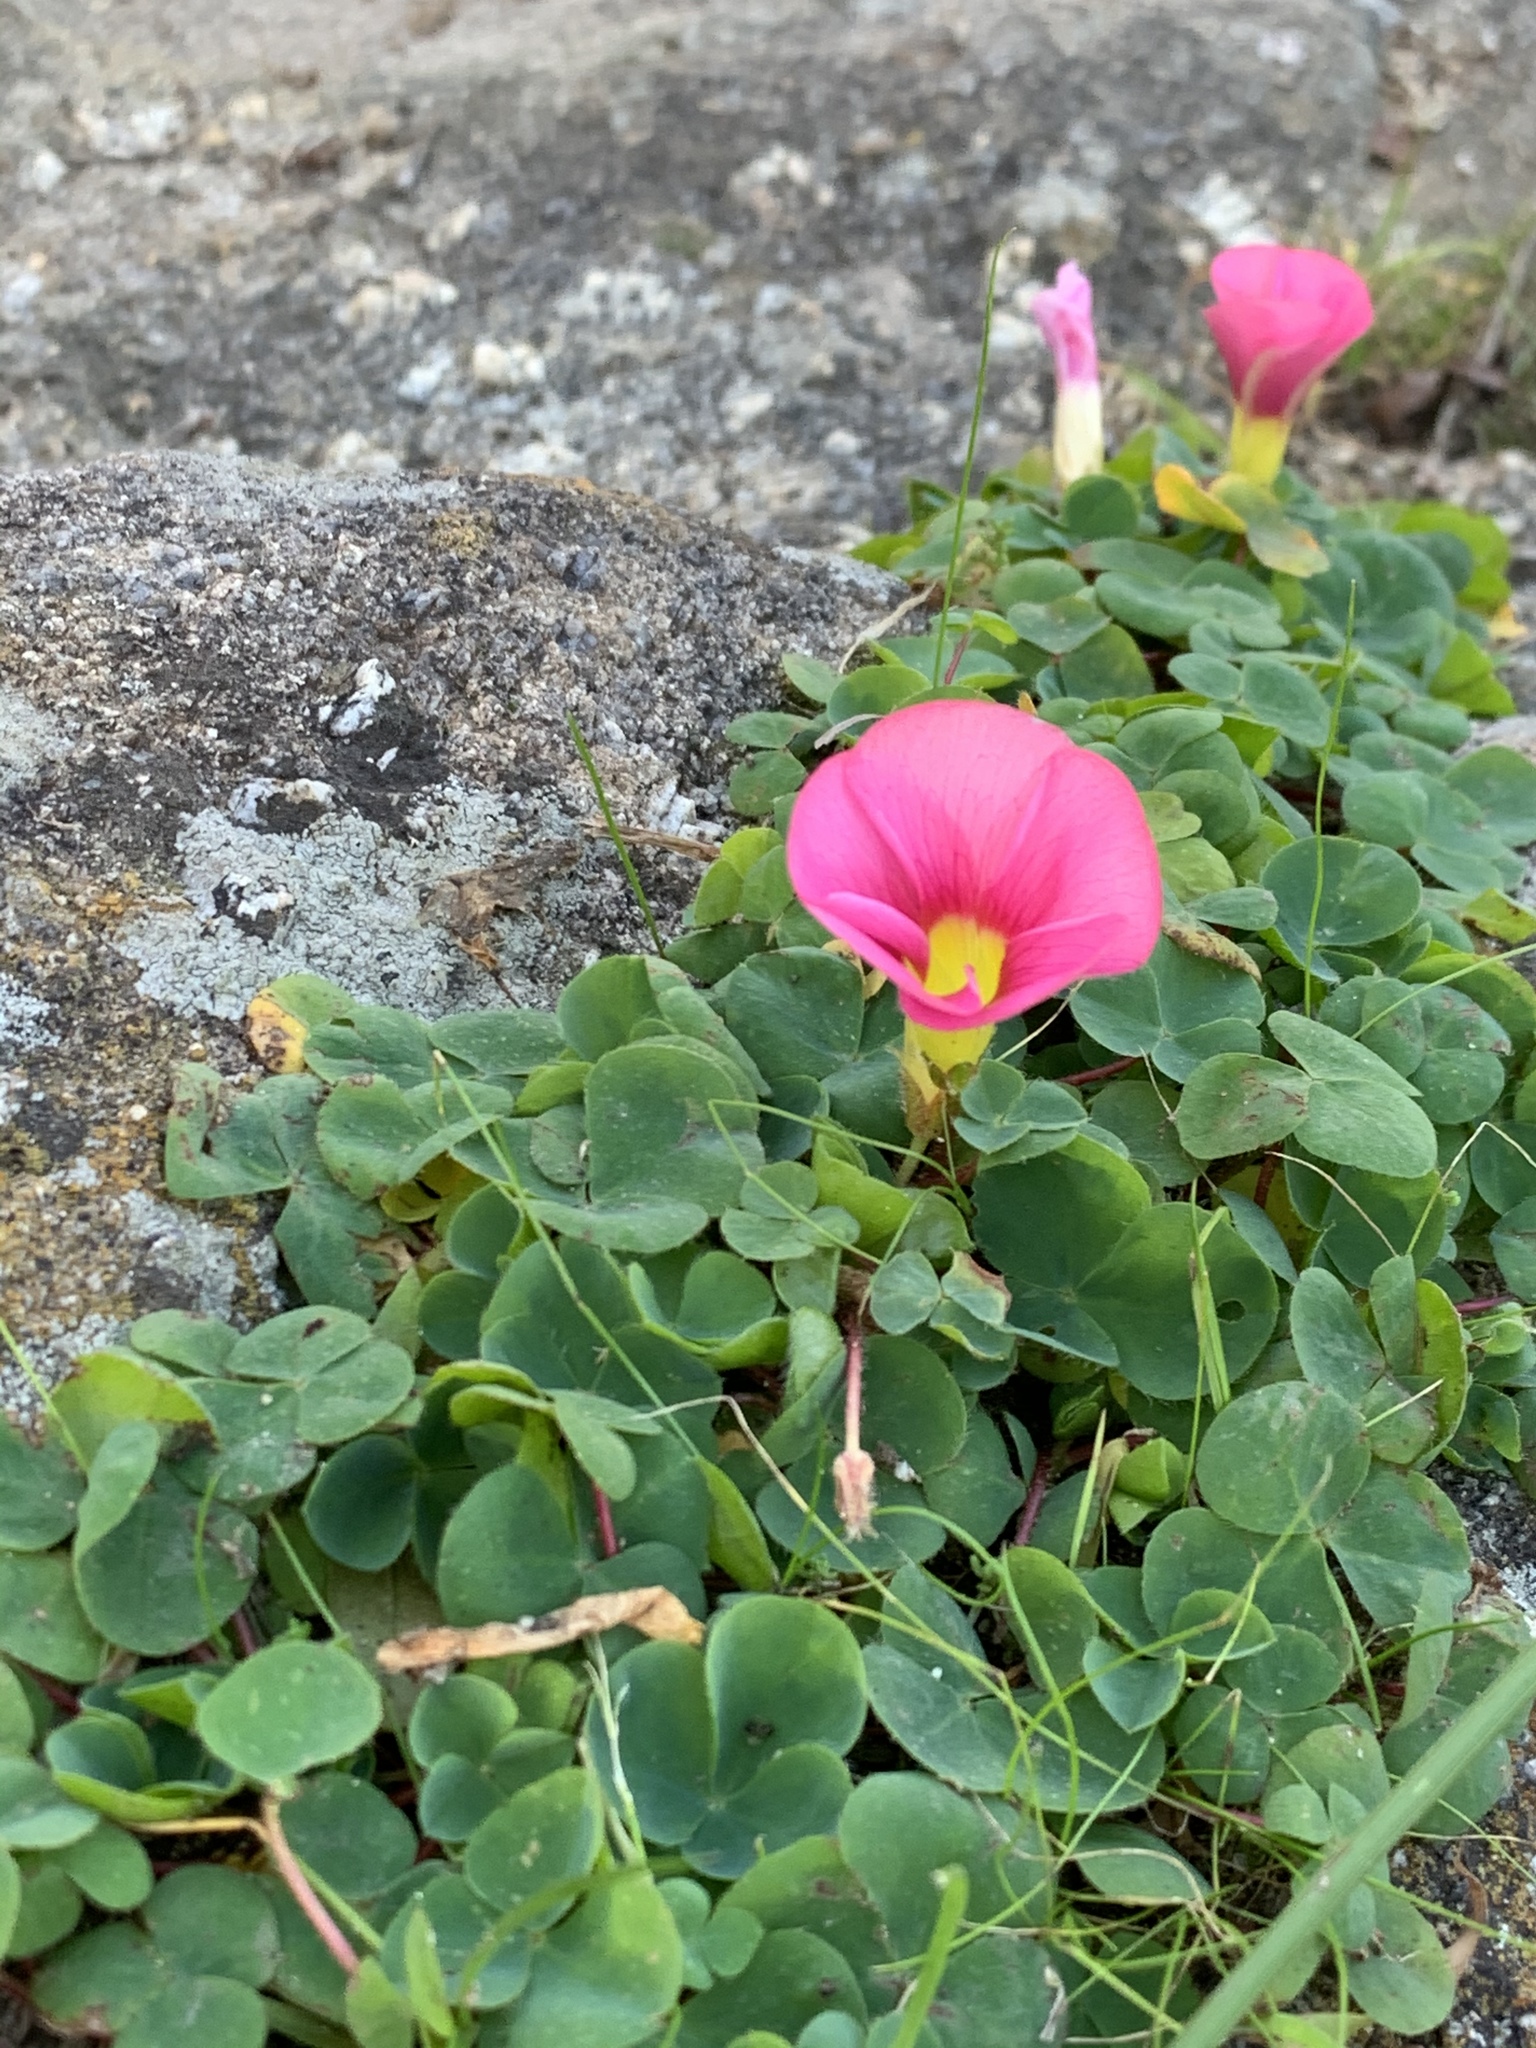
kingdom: Plantae
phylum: Tracheophyta
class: Magnoliopsida
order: Oxalidales
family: Oxalidaceae
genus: Oxalis
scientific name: Oxalis purpurea
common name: Purple woodsorrel
